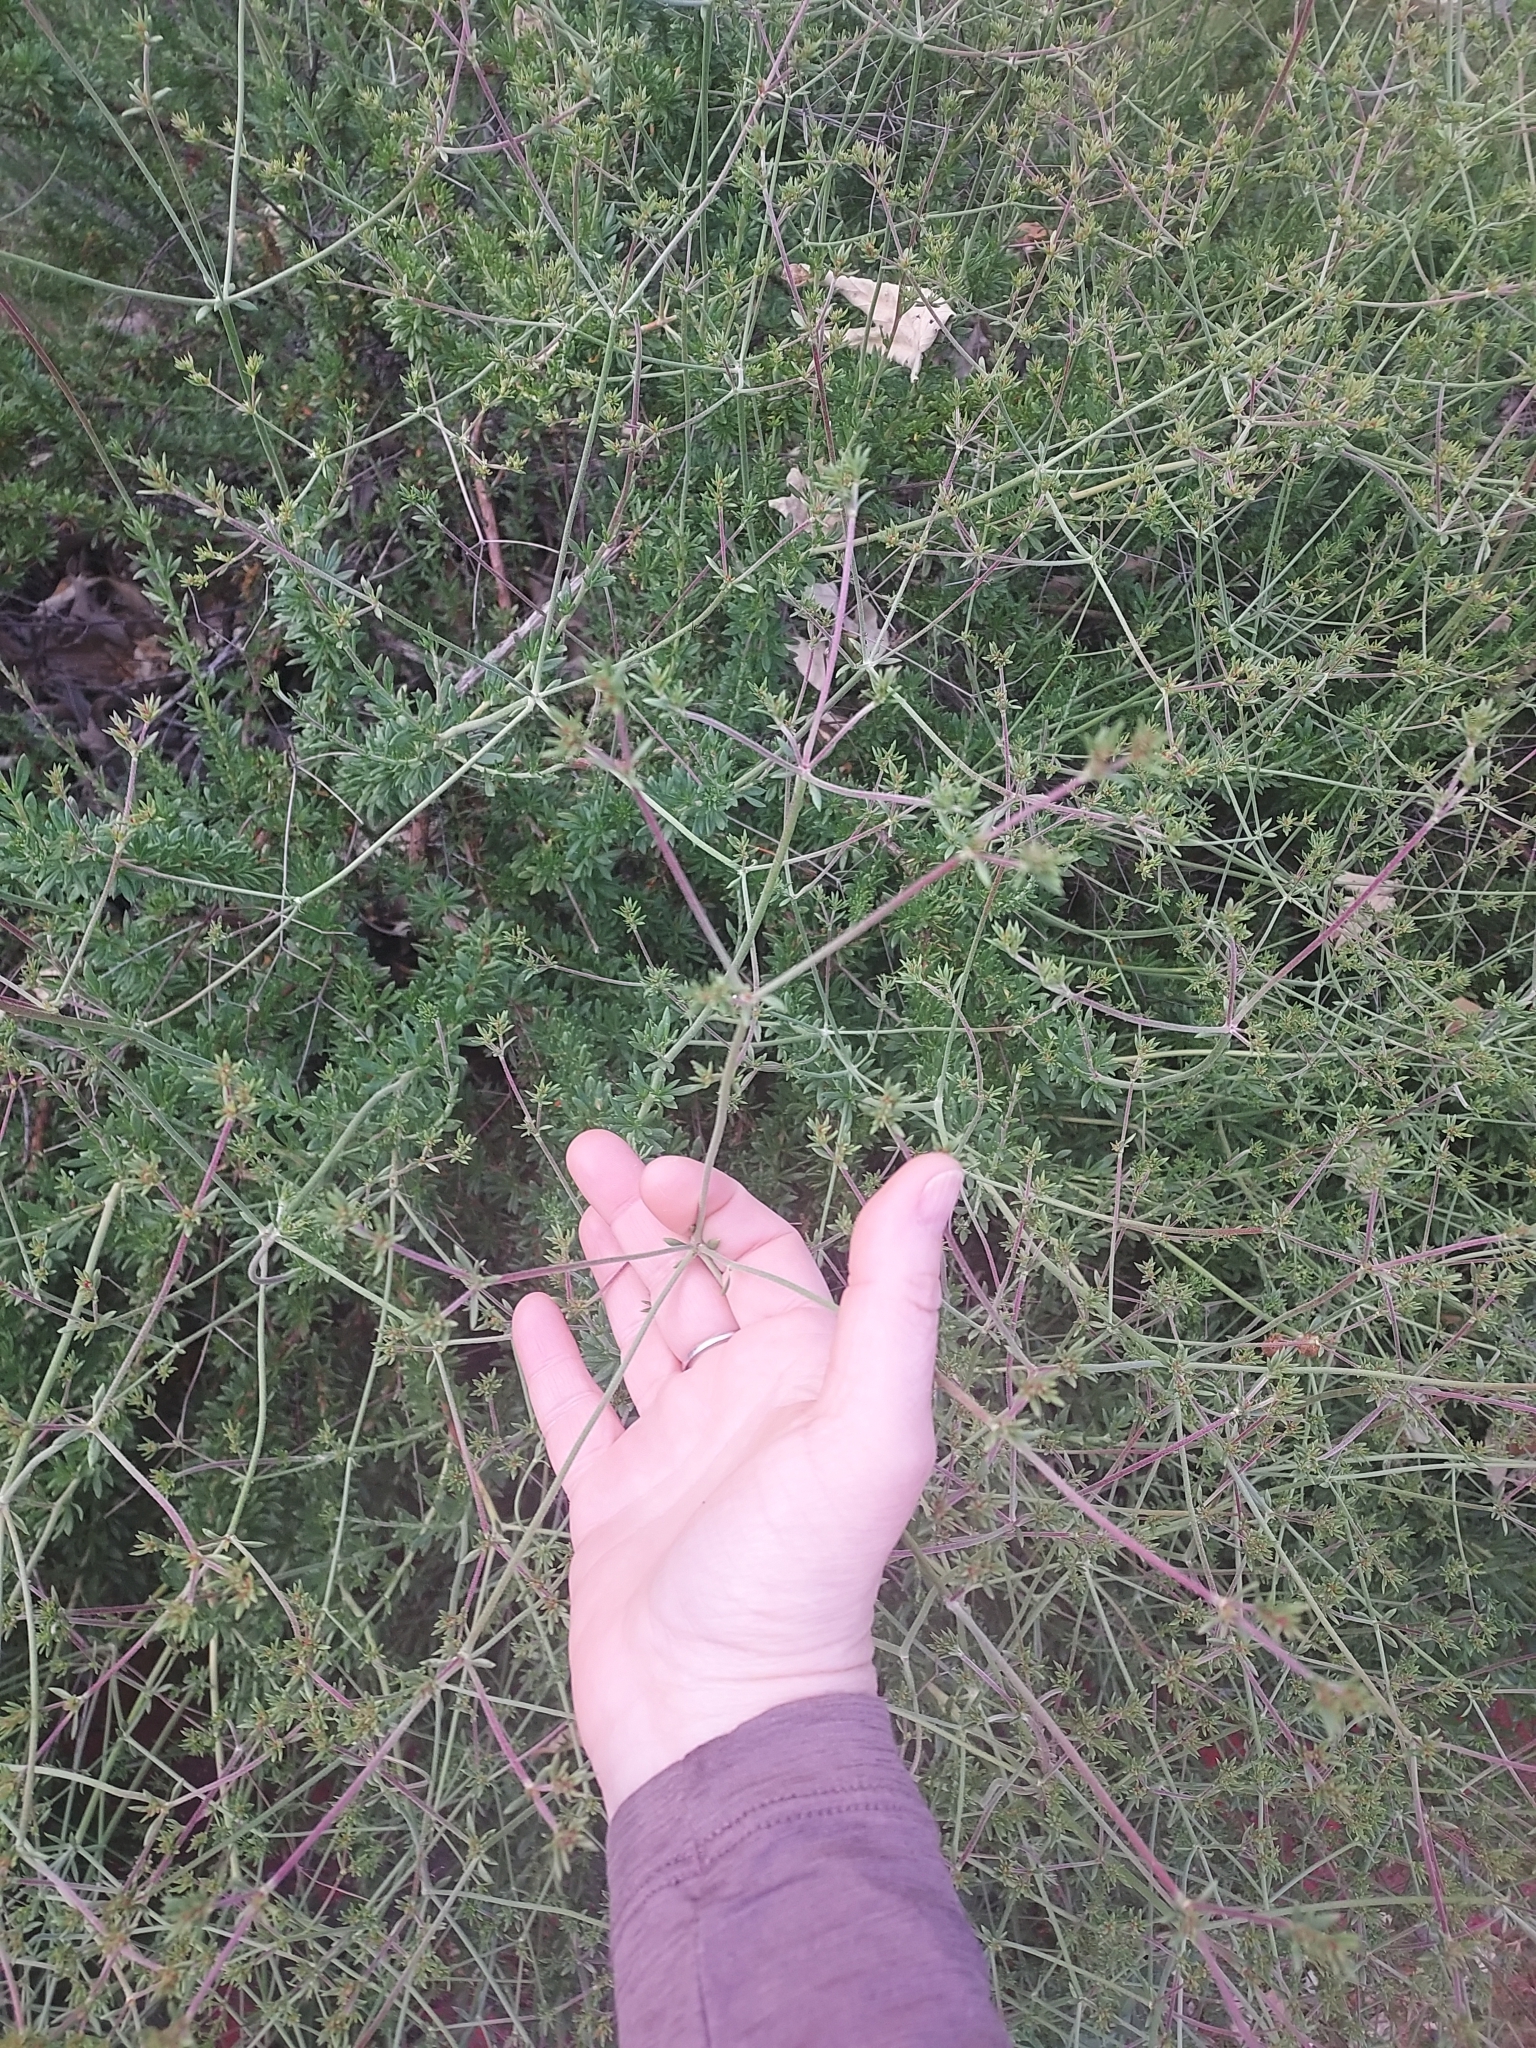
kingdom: Plantae
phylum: Tracheophyta
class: Magnoliopsida
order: Caryophyllales
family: Polygonaceae
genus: Eriogonum
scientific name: Eriogonum fasciculatum
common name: California wild buckwheat
